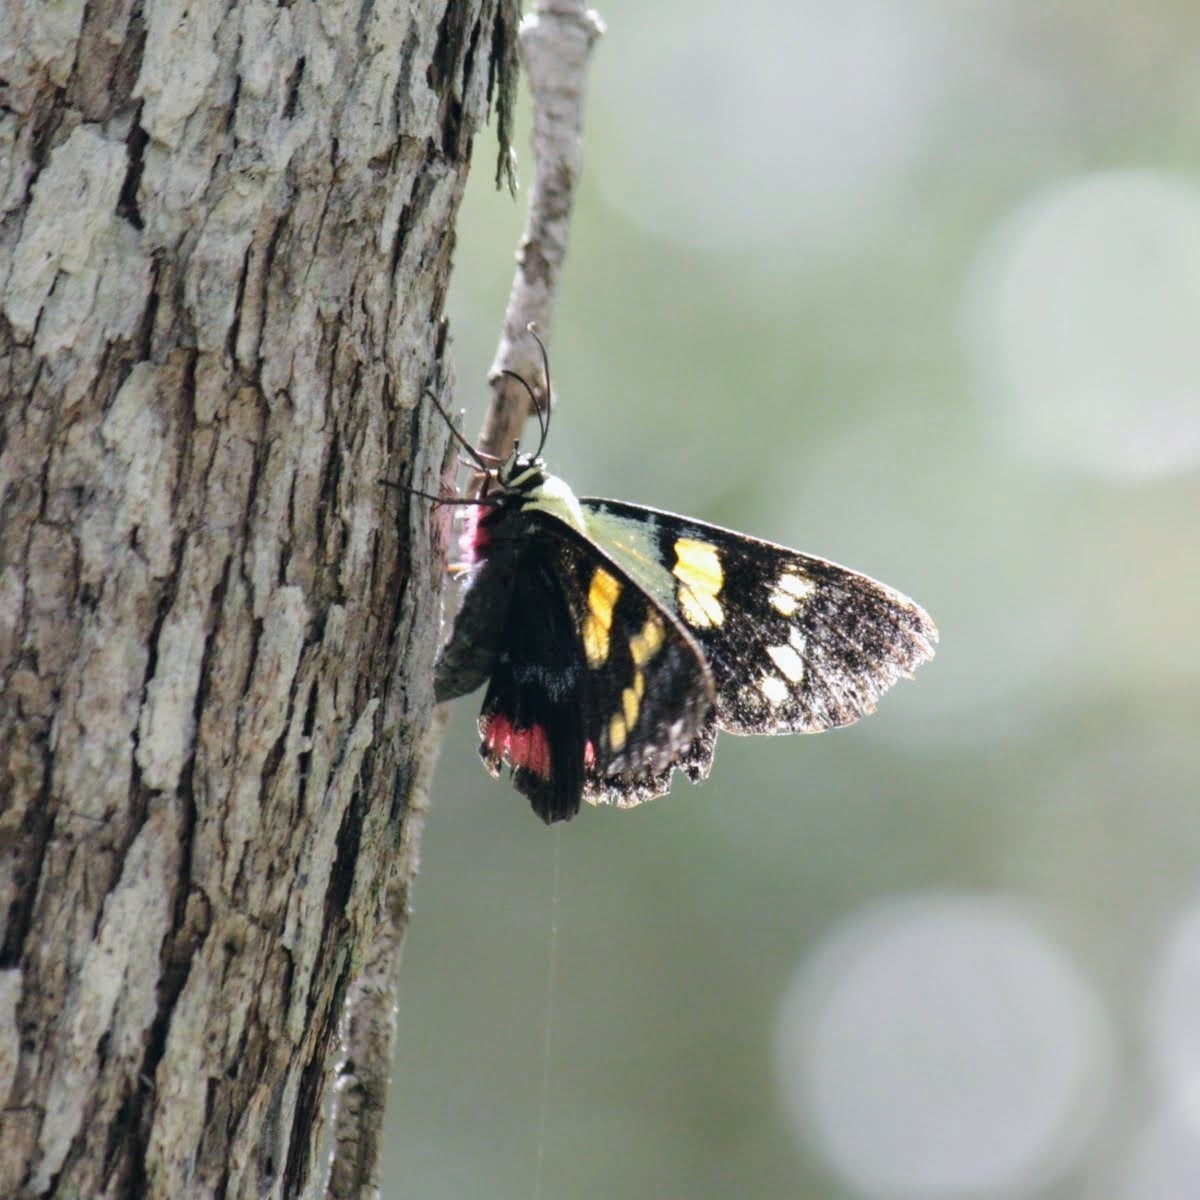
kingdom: Animalia
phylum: Arthropoda
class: Insecta
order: Lepidoptera
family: Noctuidae
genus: Agarista
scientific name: Agarista agricola
